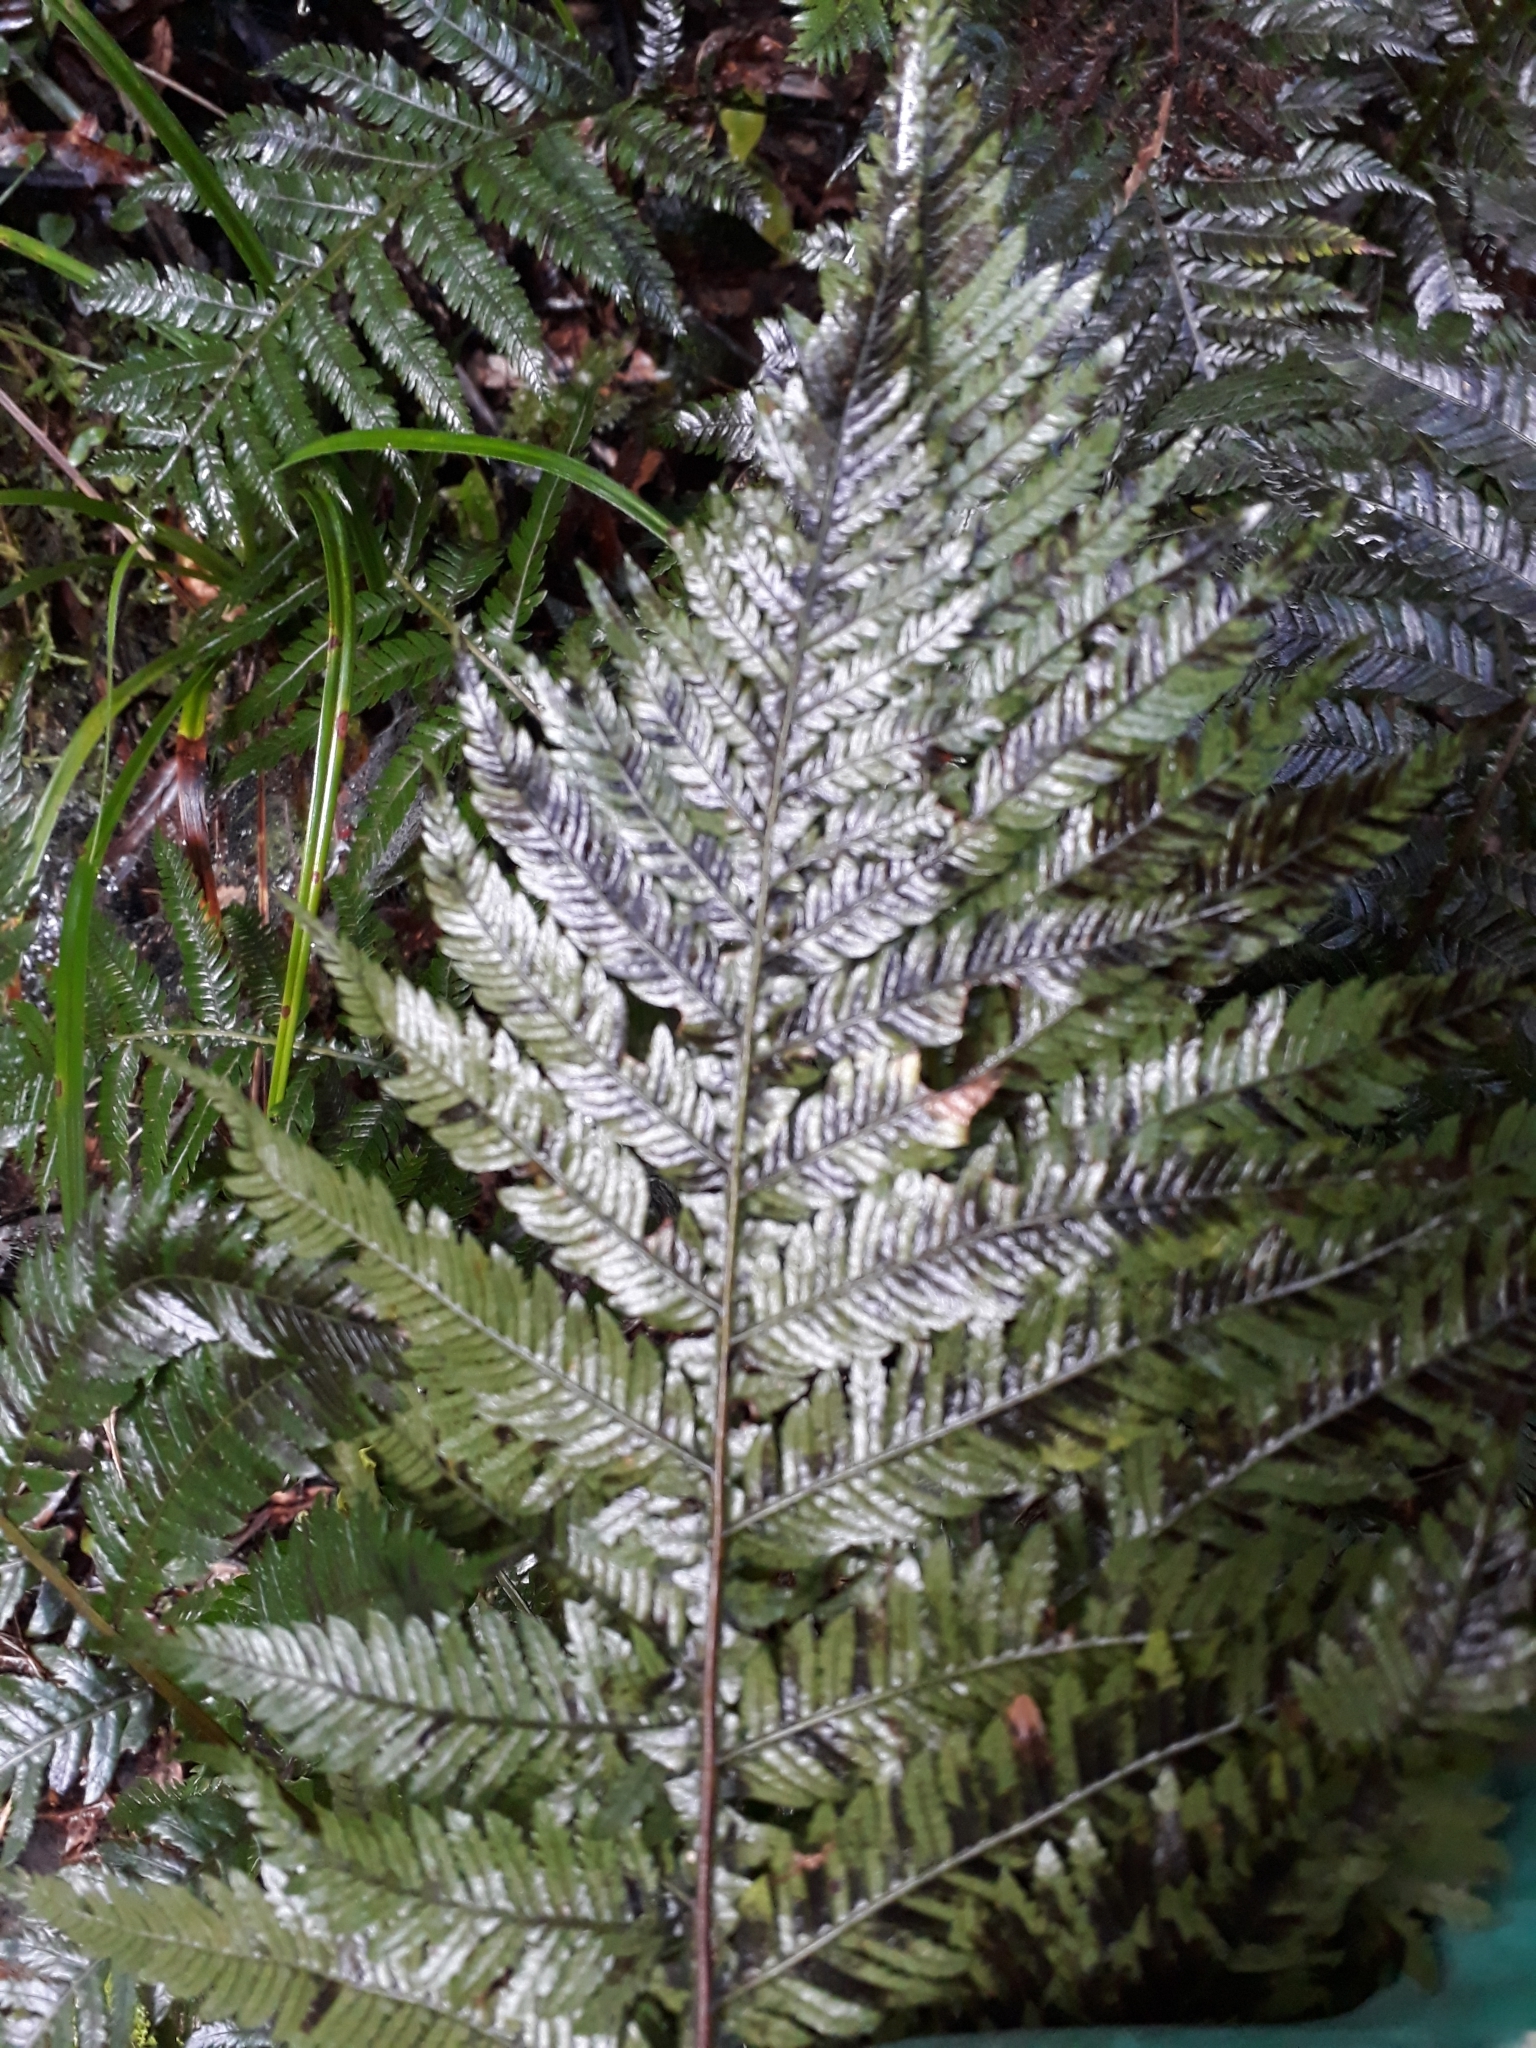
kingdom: Plantae
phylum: Tracheophyta
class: Polypodiopsida
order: Polypodiales
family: Blechnaceae
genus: Diploblechnum
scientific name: Diploblechnum fraseri
